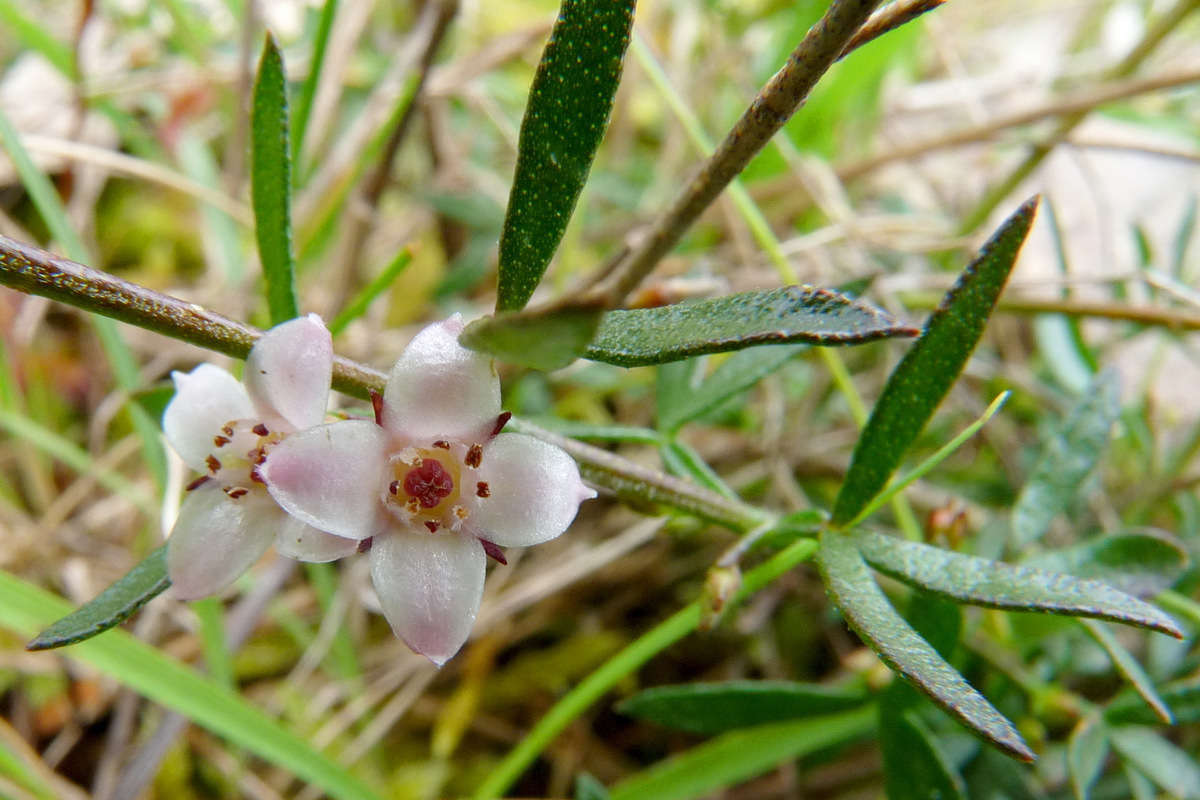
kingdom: Plantae
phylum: Tracheophyta
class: Magnoliopsida
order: Sapindales
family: Rutaceae
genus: Cyanothamnus
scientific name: Cyanothamnus nanus
